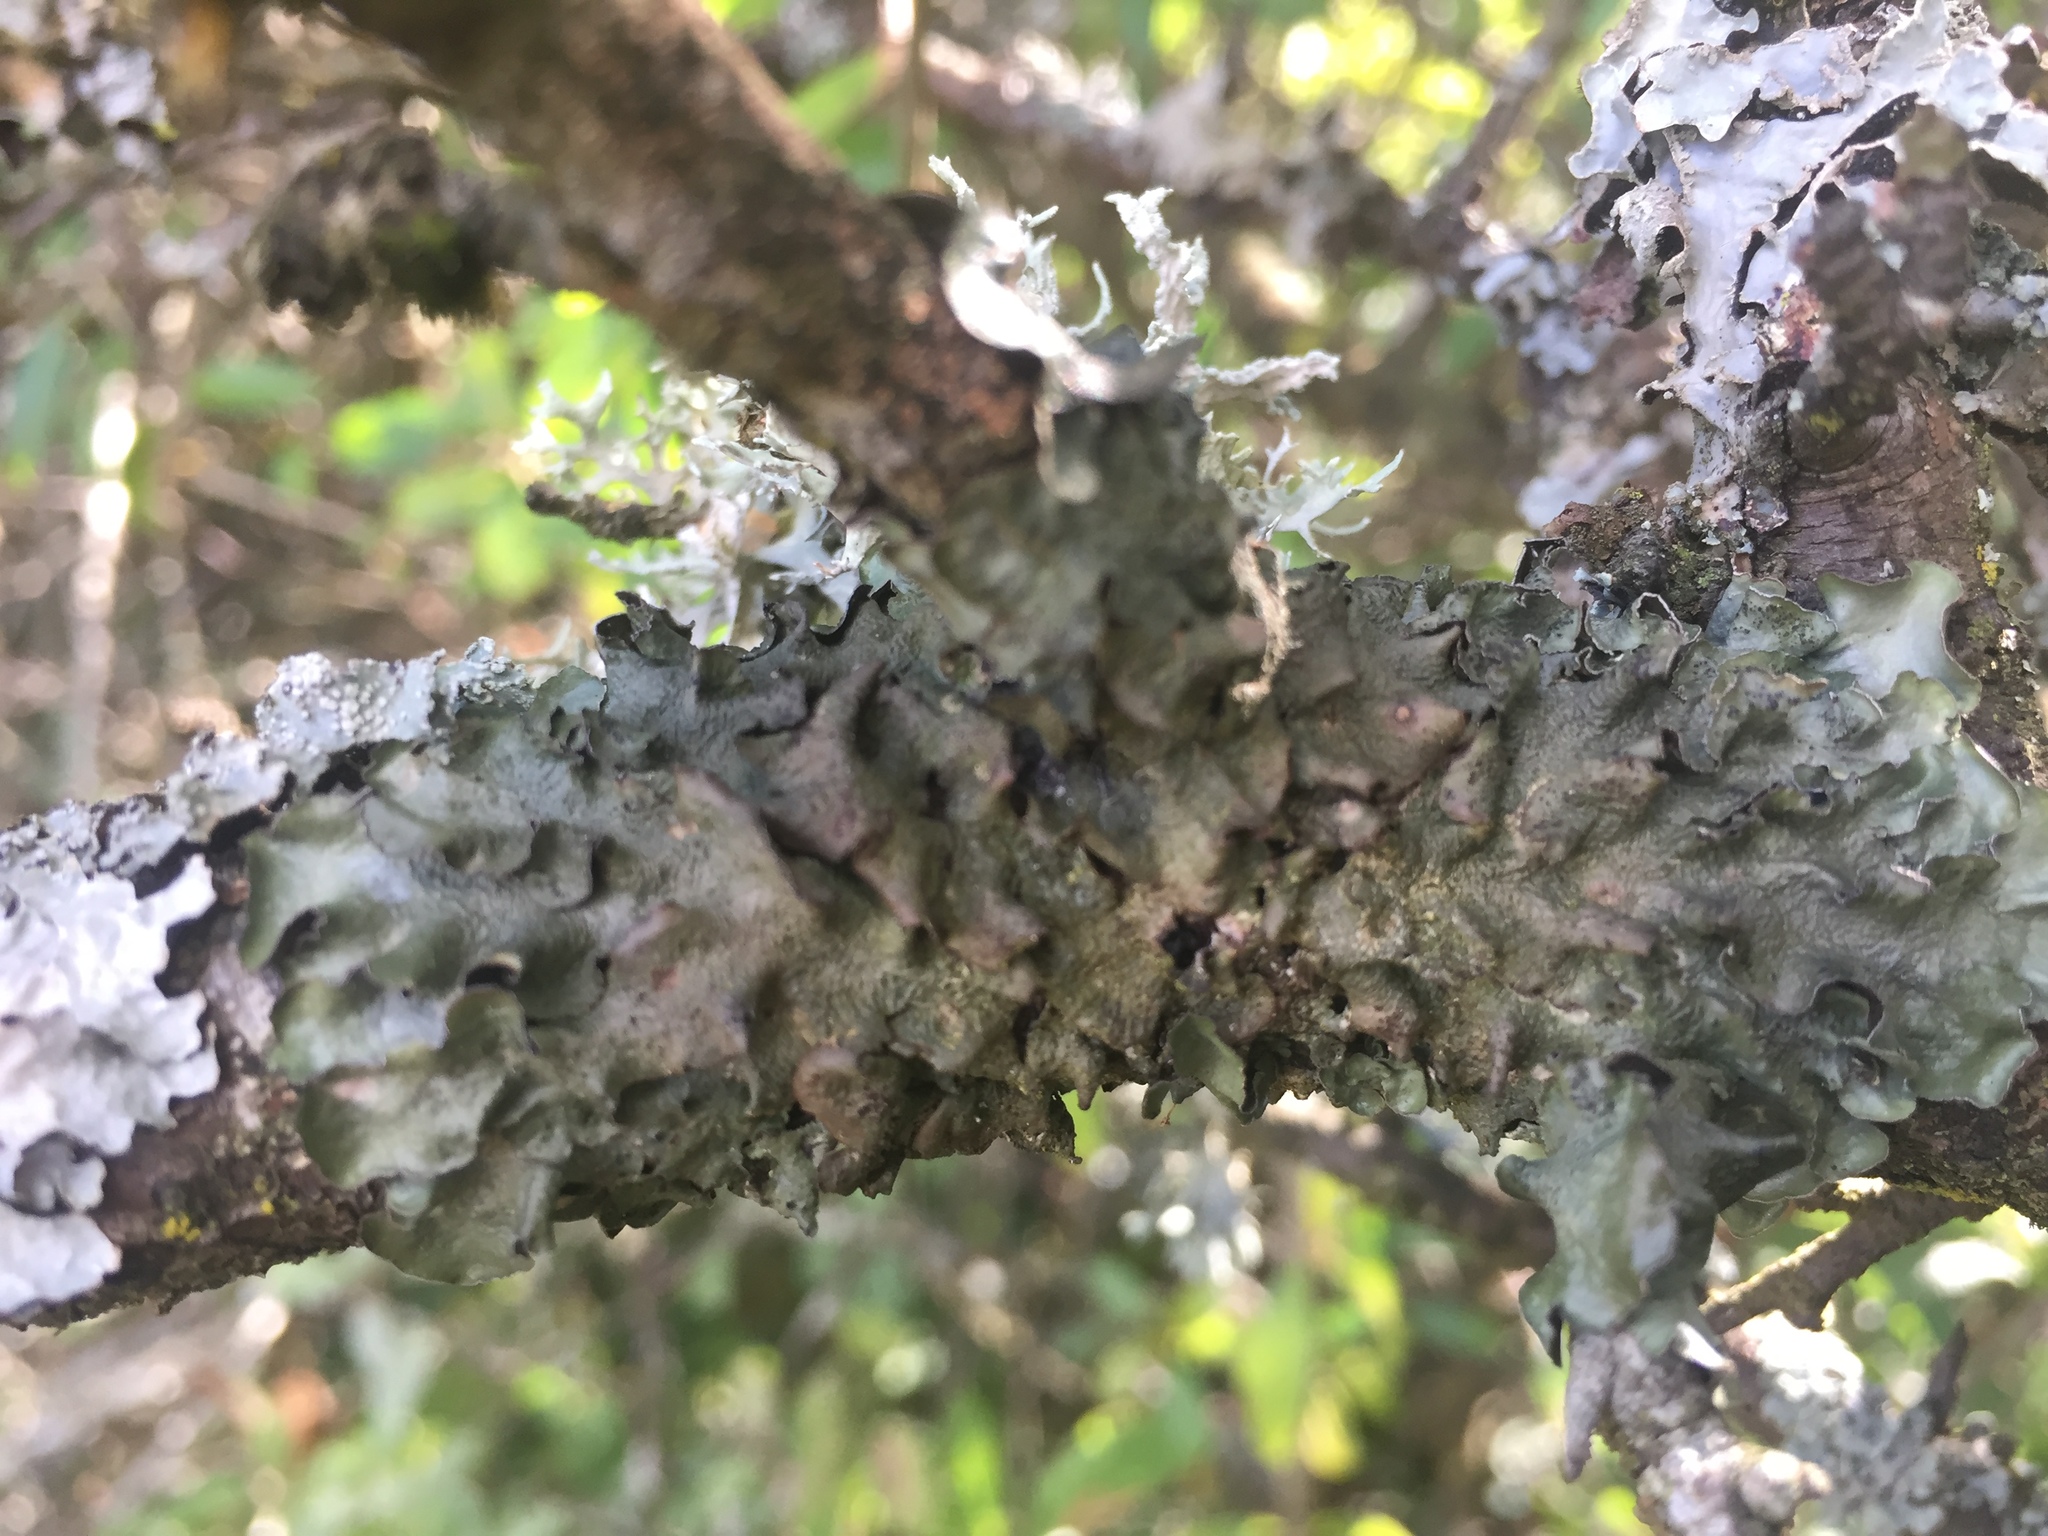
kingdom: Fungi
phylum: Ascomycota
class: Lecanoromycetes
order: Lecanorales
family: Parmeliaceae
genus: Pleurosticta
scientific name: Pleurosticta acetabulum
